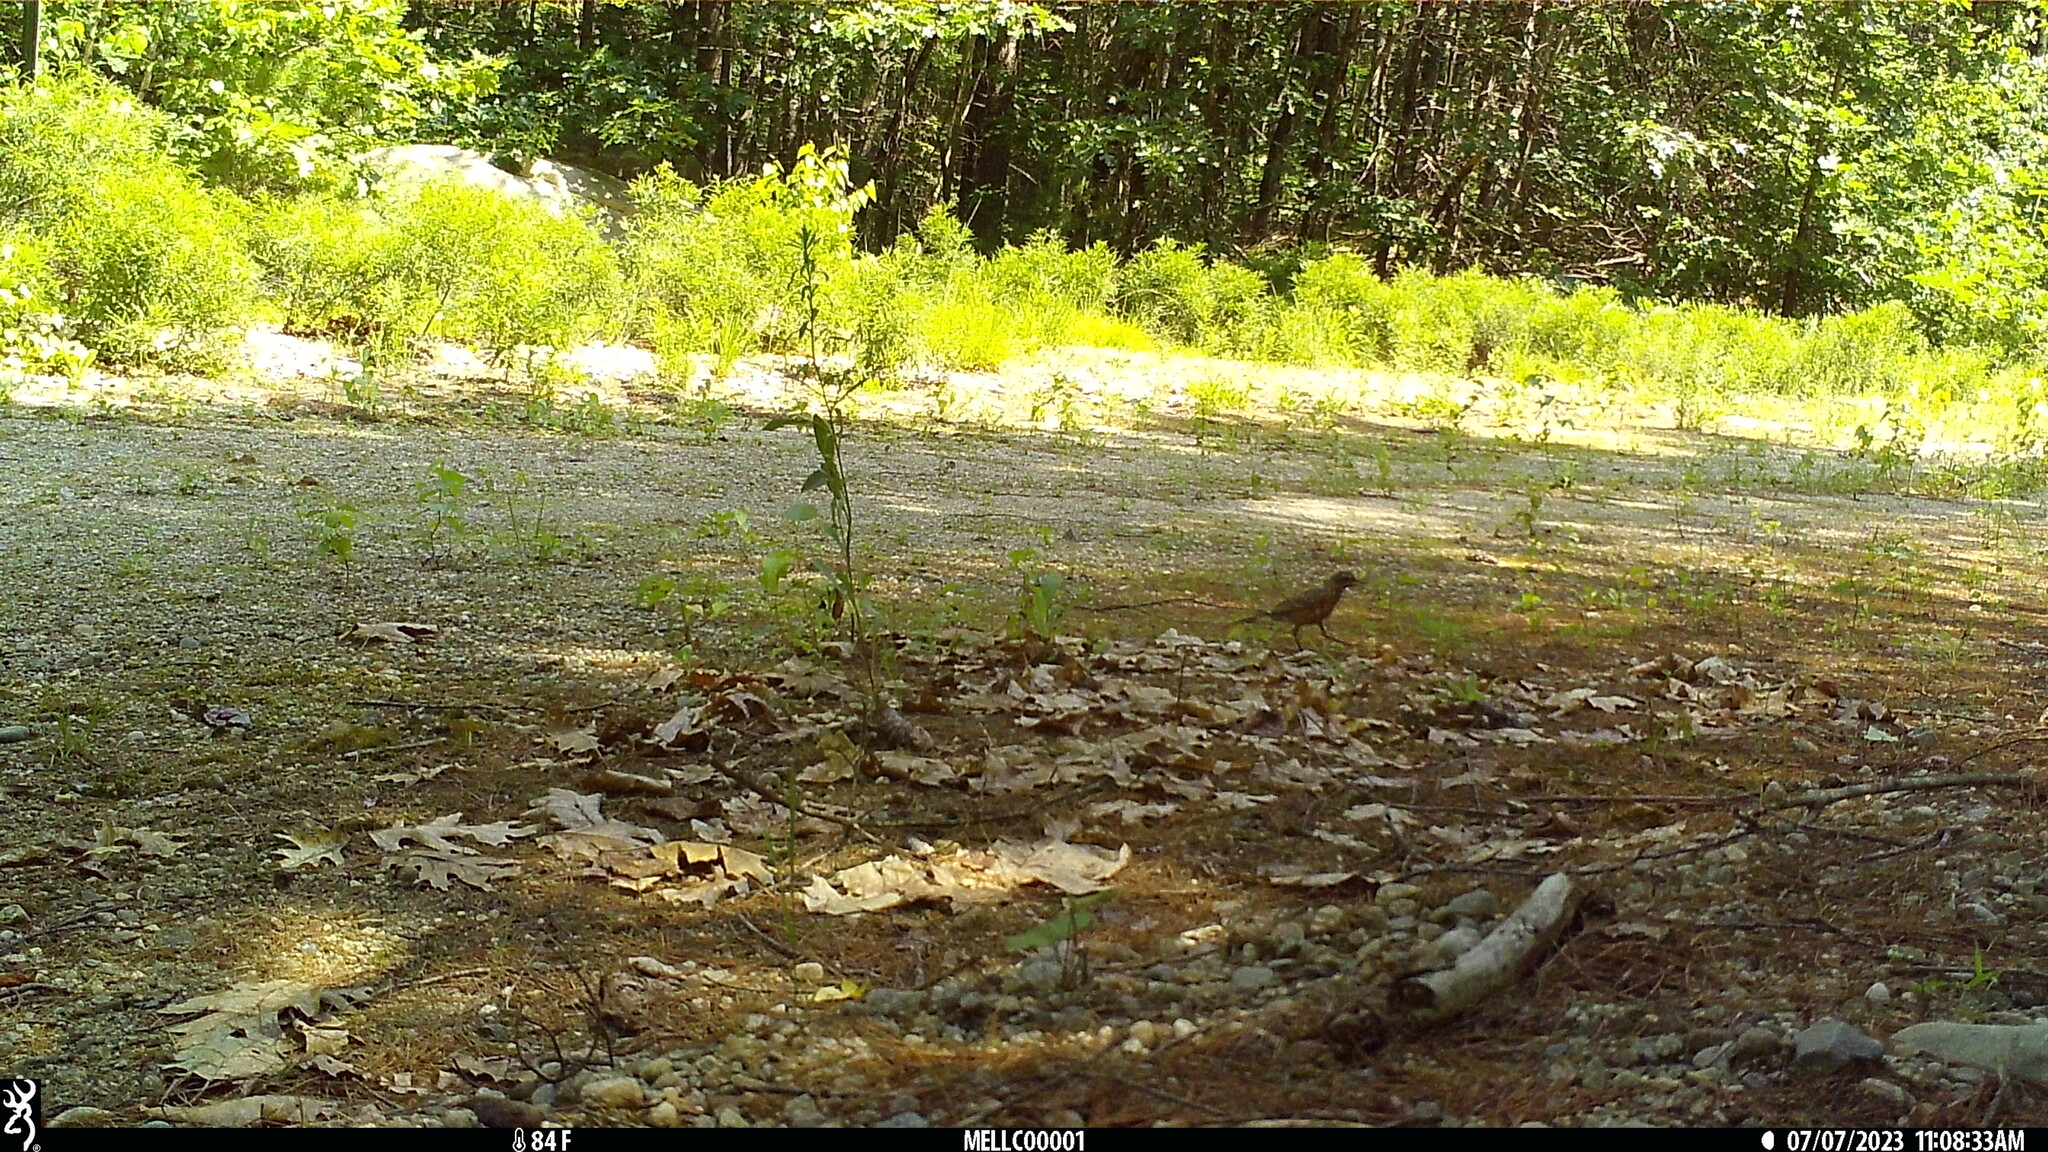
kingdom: Animalia
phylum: Chordata
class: Aves
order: Passeriformes
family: Turdidae
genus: Turdus
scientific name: Turdus migratorius
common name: American robin
